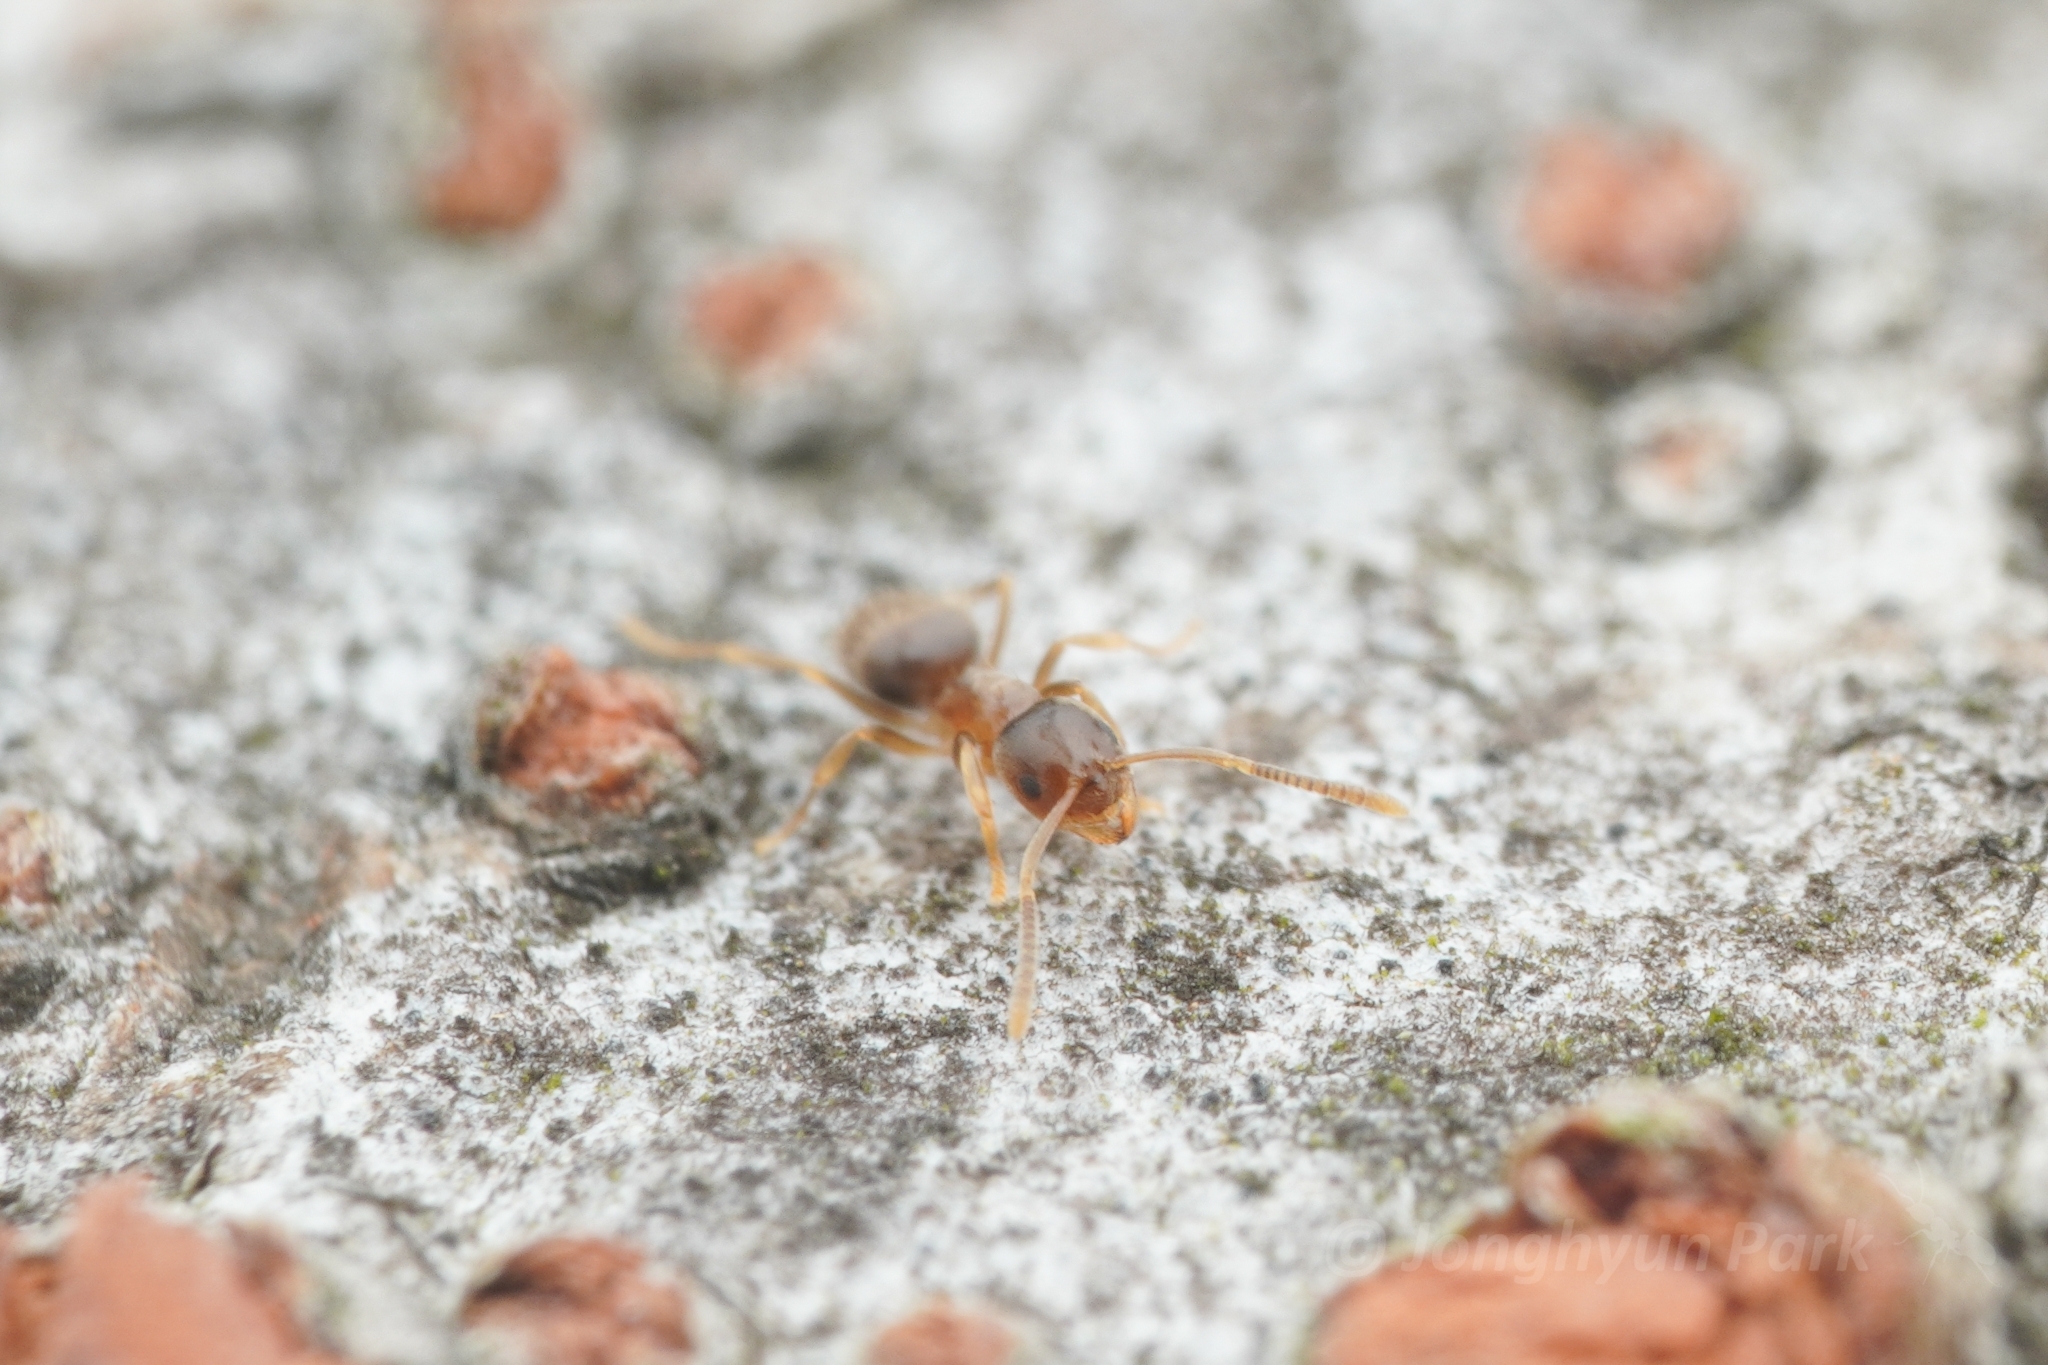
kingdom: Animalia
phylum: Arthropoda
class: Insecta
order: Hymenoptera
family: Formicidae
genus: Paraparatrechina
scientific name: Paraparatrechina
